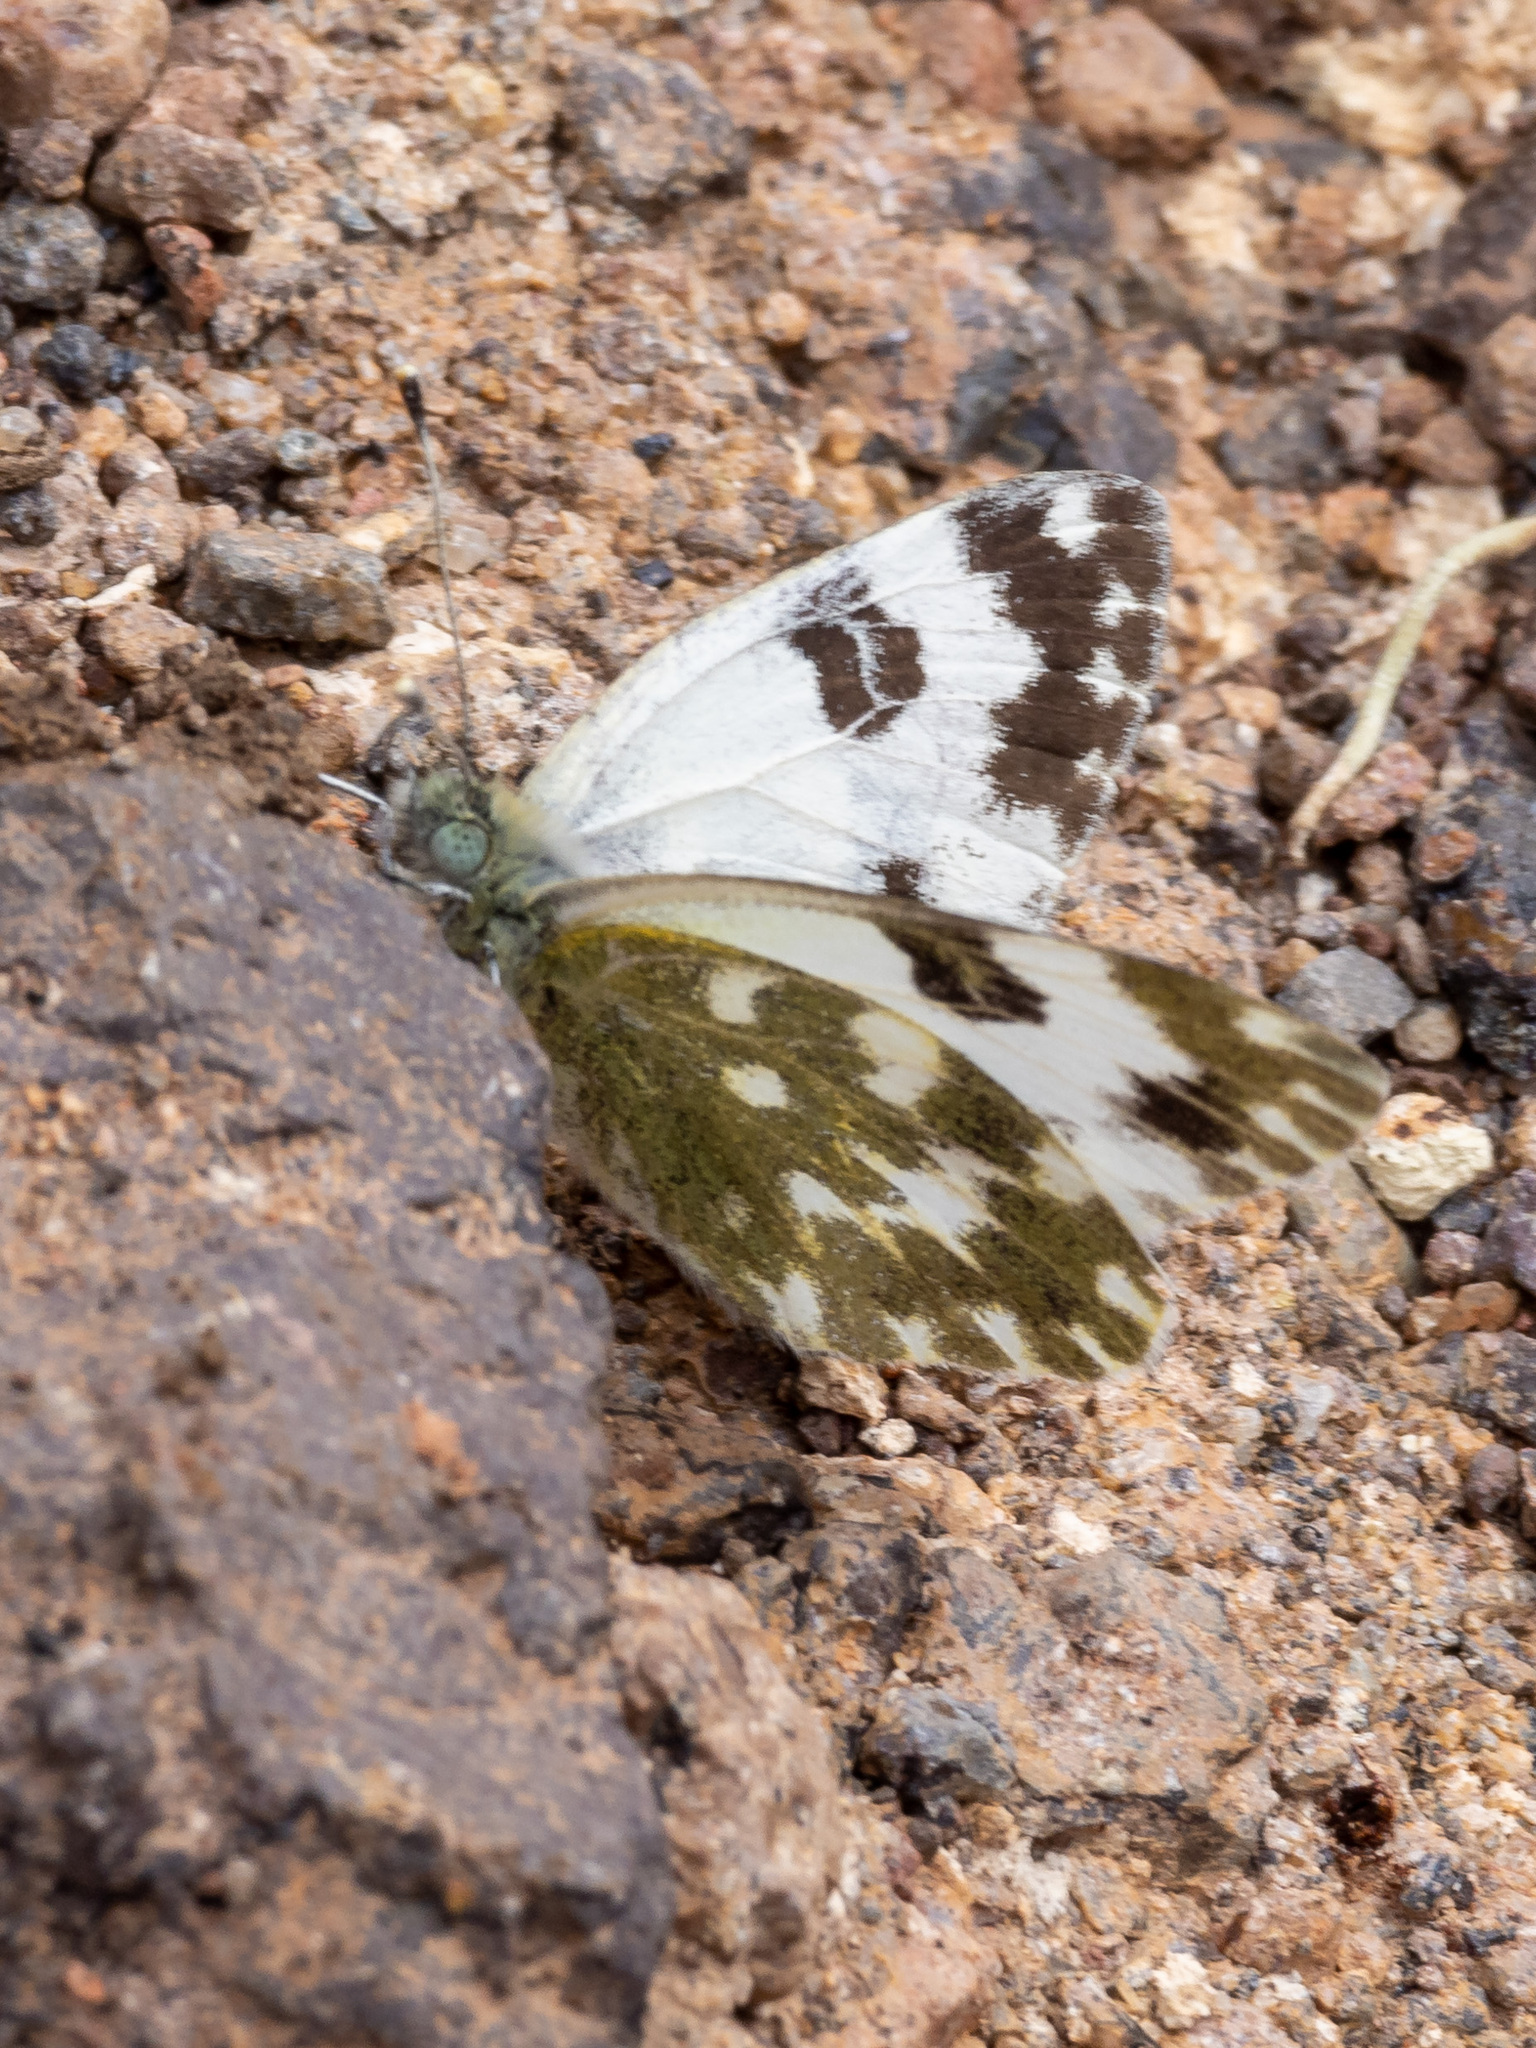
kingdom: Animalia
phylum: Arthropoda
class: Insecta
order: Lepidoptera
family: Pieridae
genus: Pontia
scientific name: Pontia daplidice
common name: Bath white
